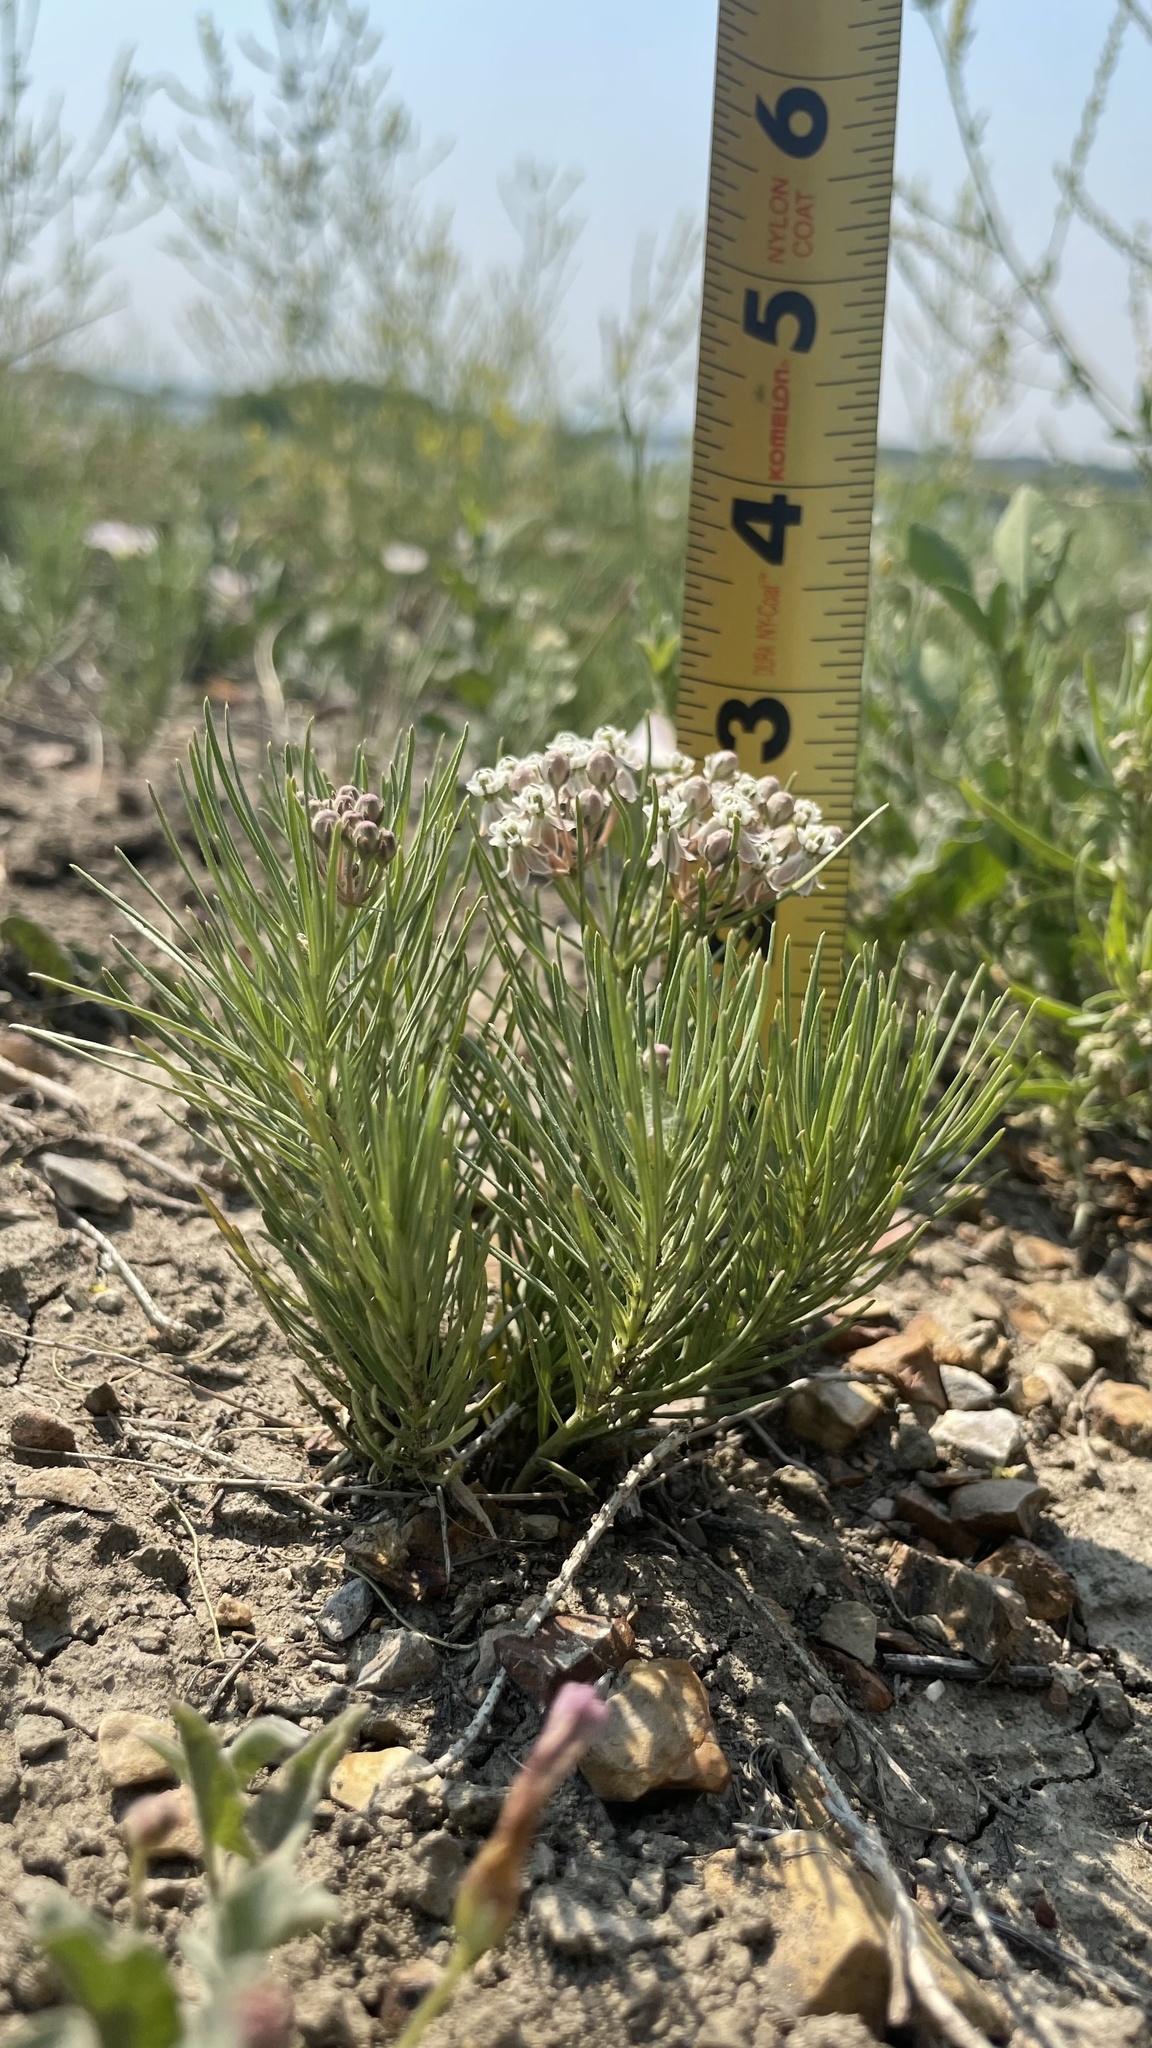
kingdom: Plantae
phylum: Tracheophyta
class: Magnoliopsida
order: Gentianales
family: Apocynaceae
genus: Asclepias
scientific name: Asclepias pumila
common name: Dwarf milkweed
